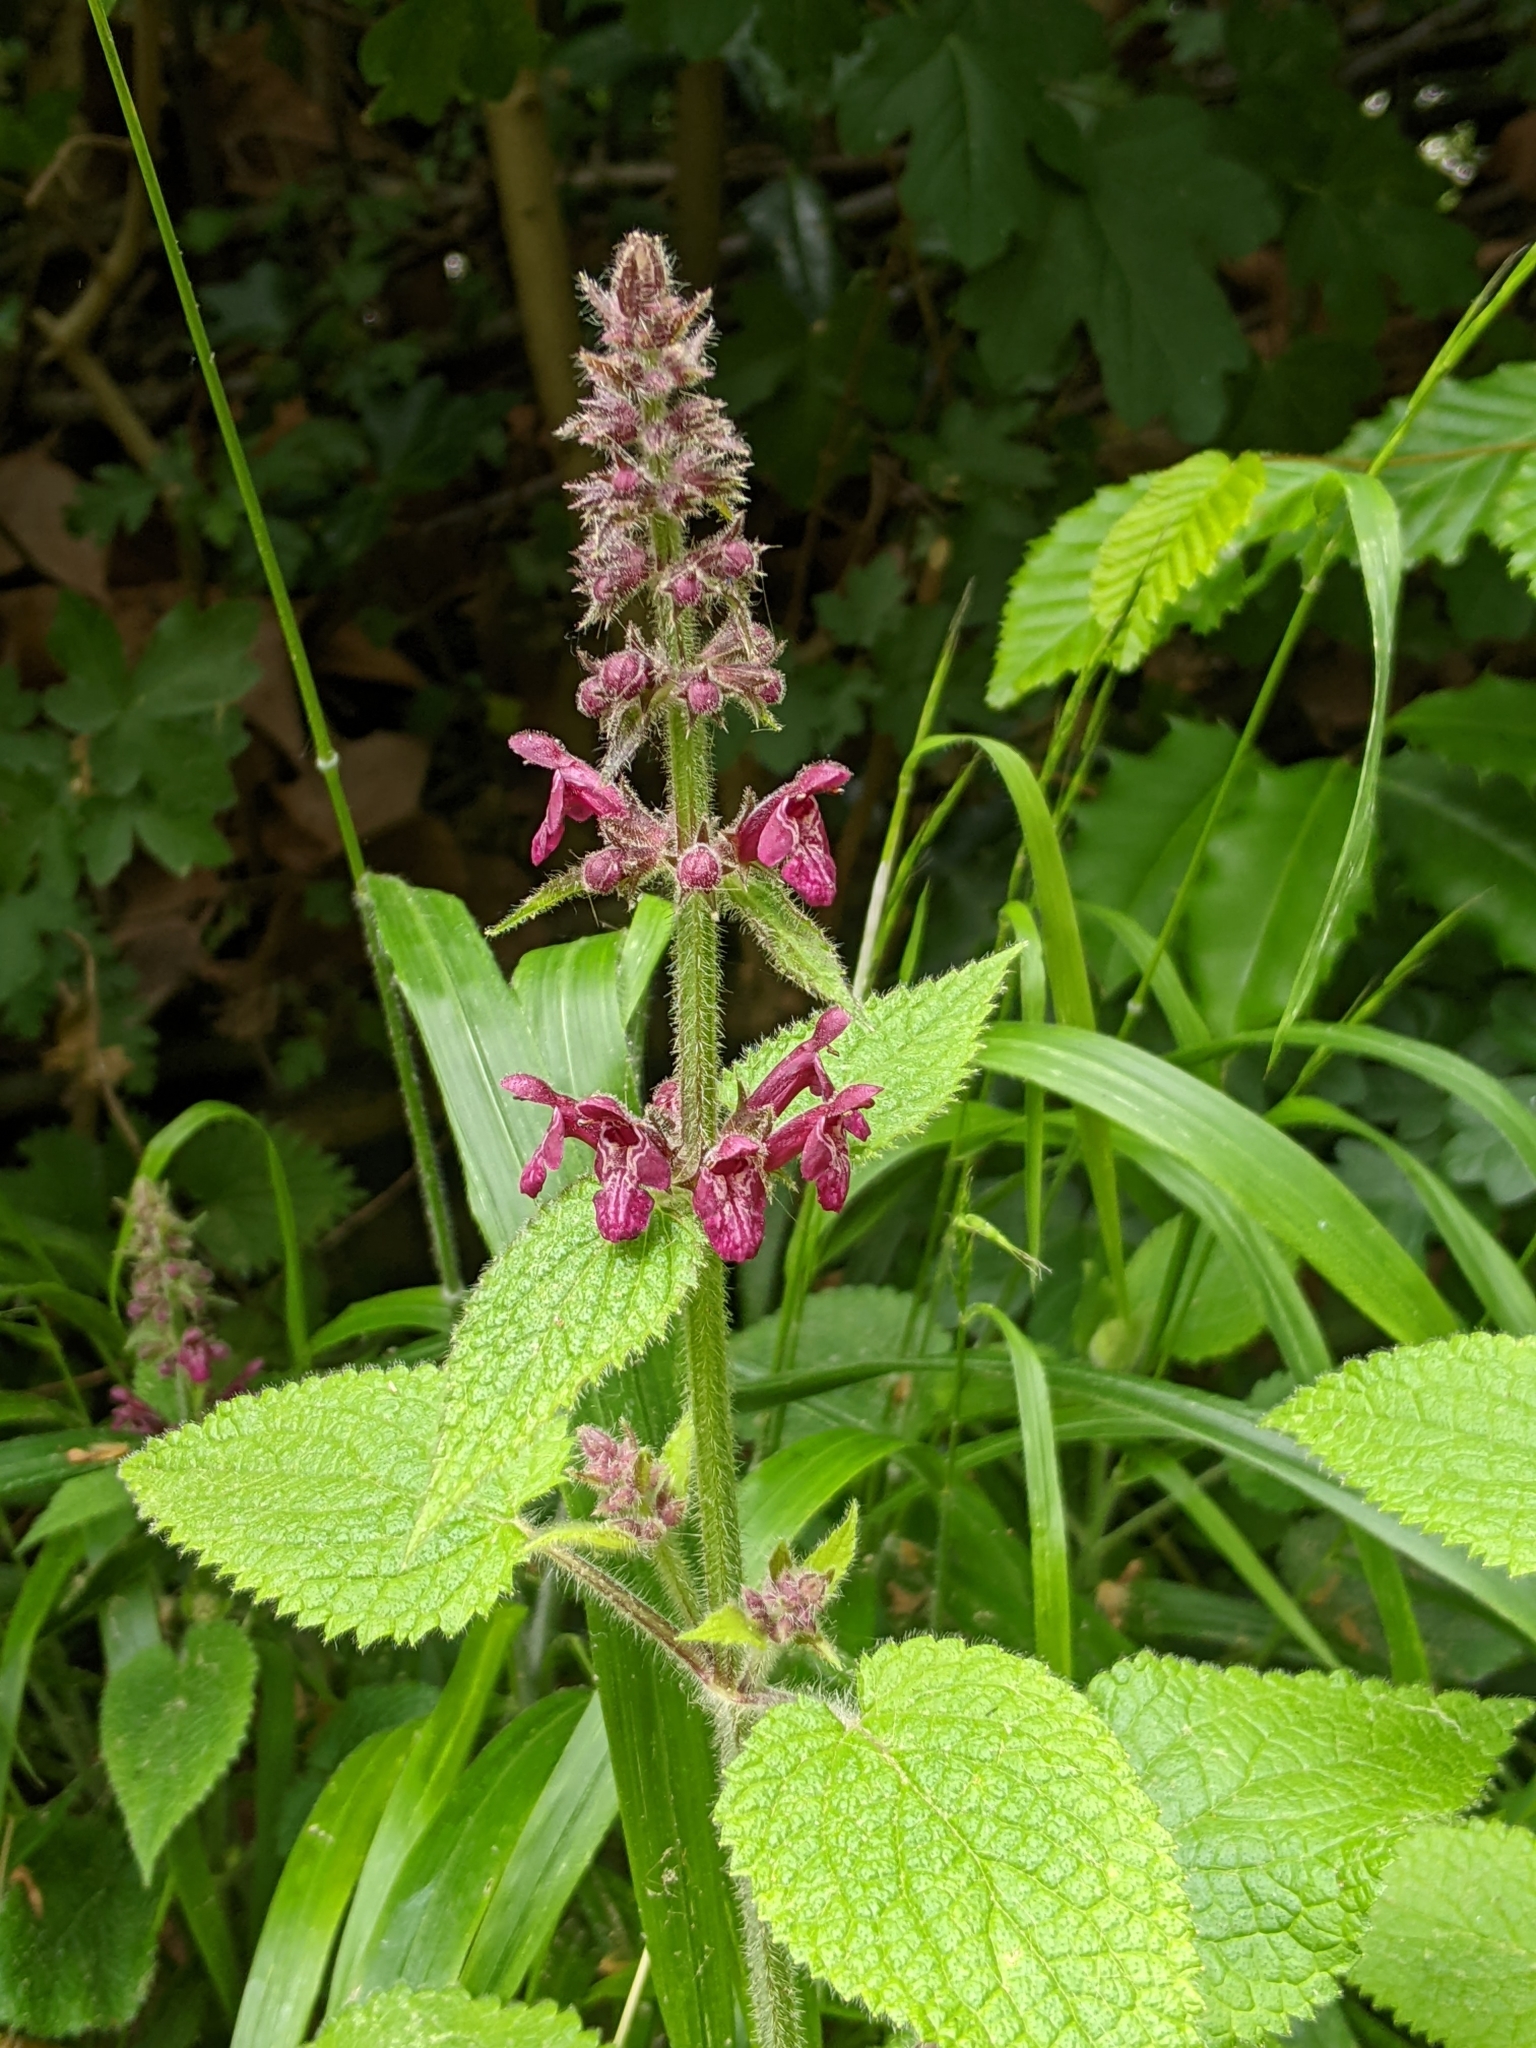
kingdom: Plantae
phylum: Tracheophyta
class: Magnoliopsida
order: Lamiales
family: Lamiaceae
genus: Stachys
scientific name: Stachys sylvatica
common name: Hedge woundwort
